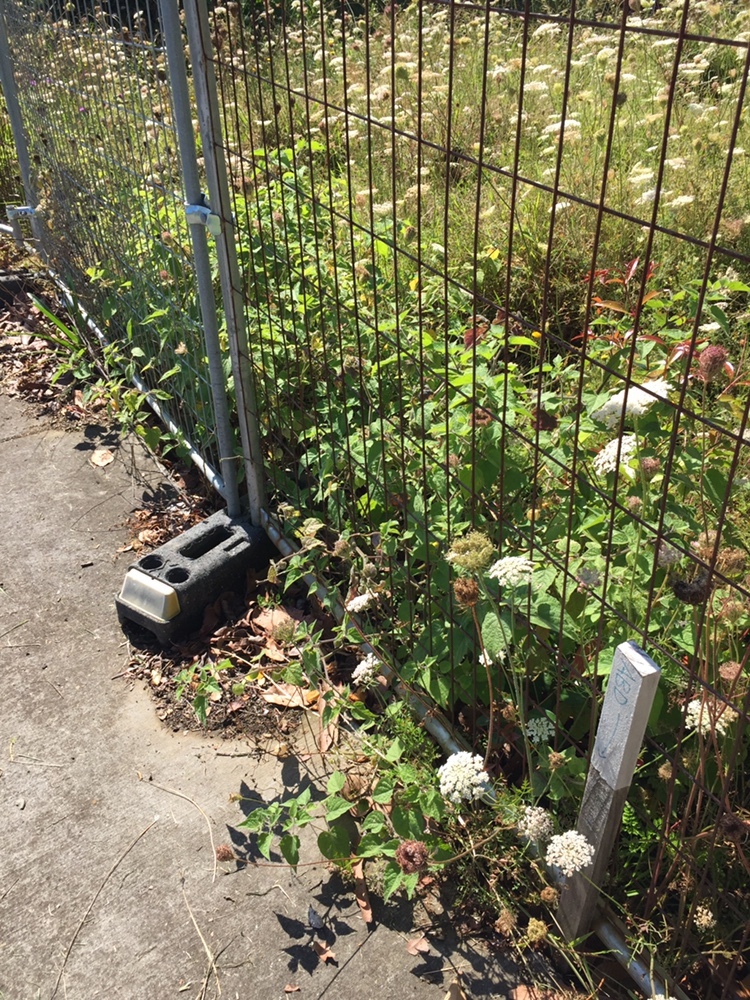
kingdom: Plantae
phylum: Tracheophyta
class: Magnoliopsida
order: Solanales
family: Solanaceae
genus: Physalis
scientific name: Physalis peruviana
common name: Cape-gooseberry
